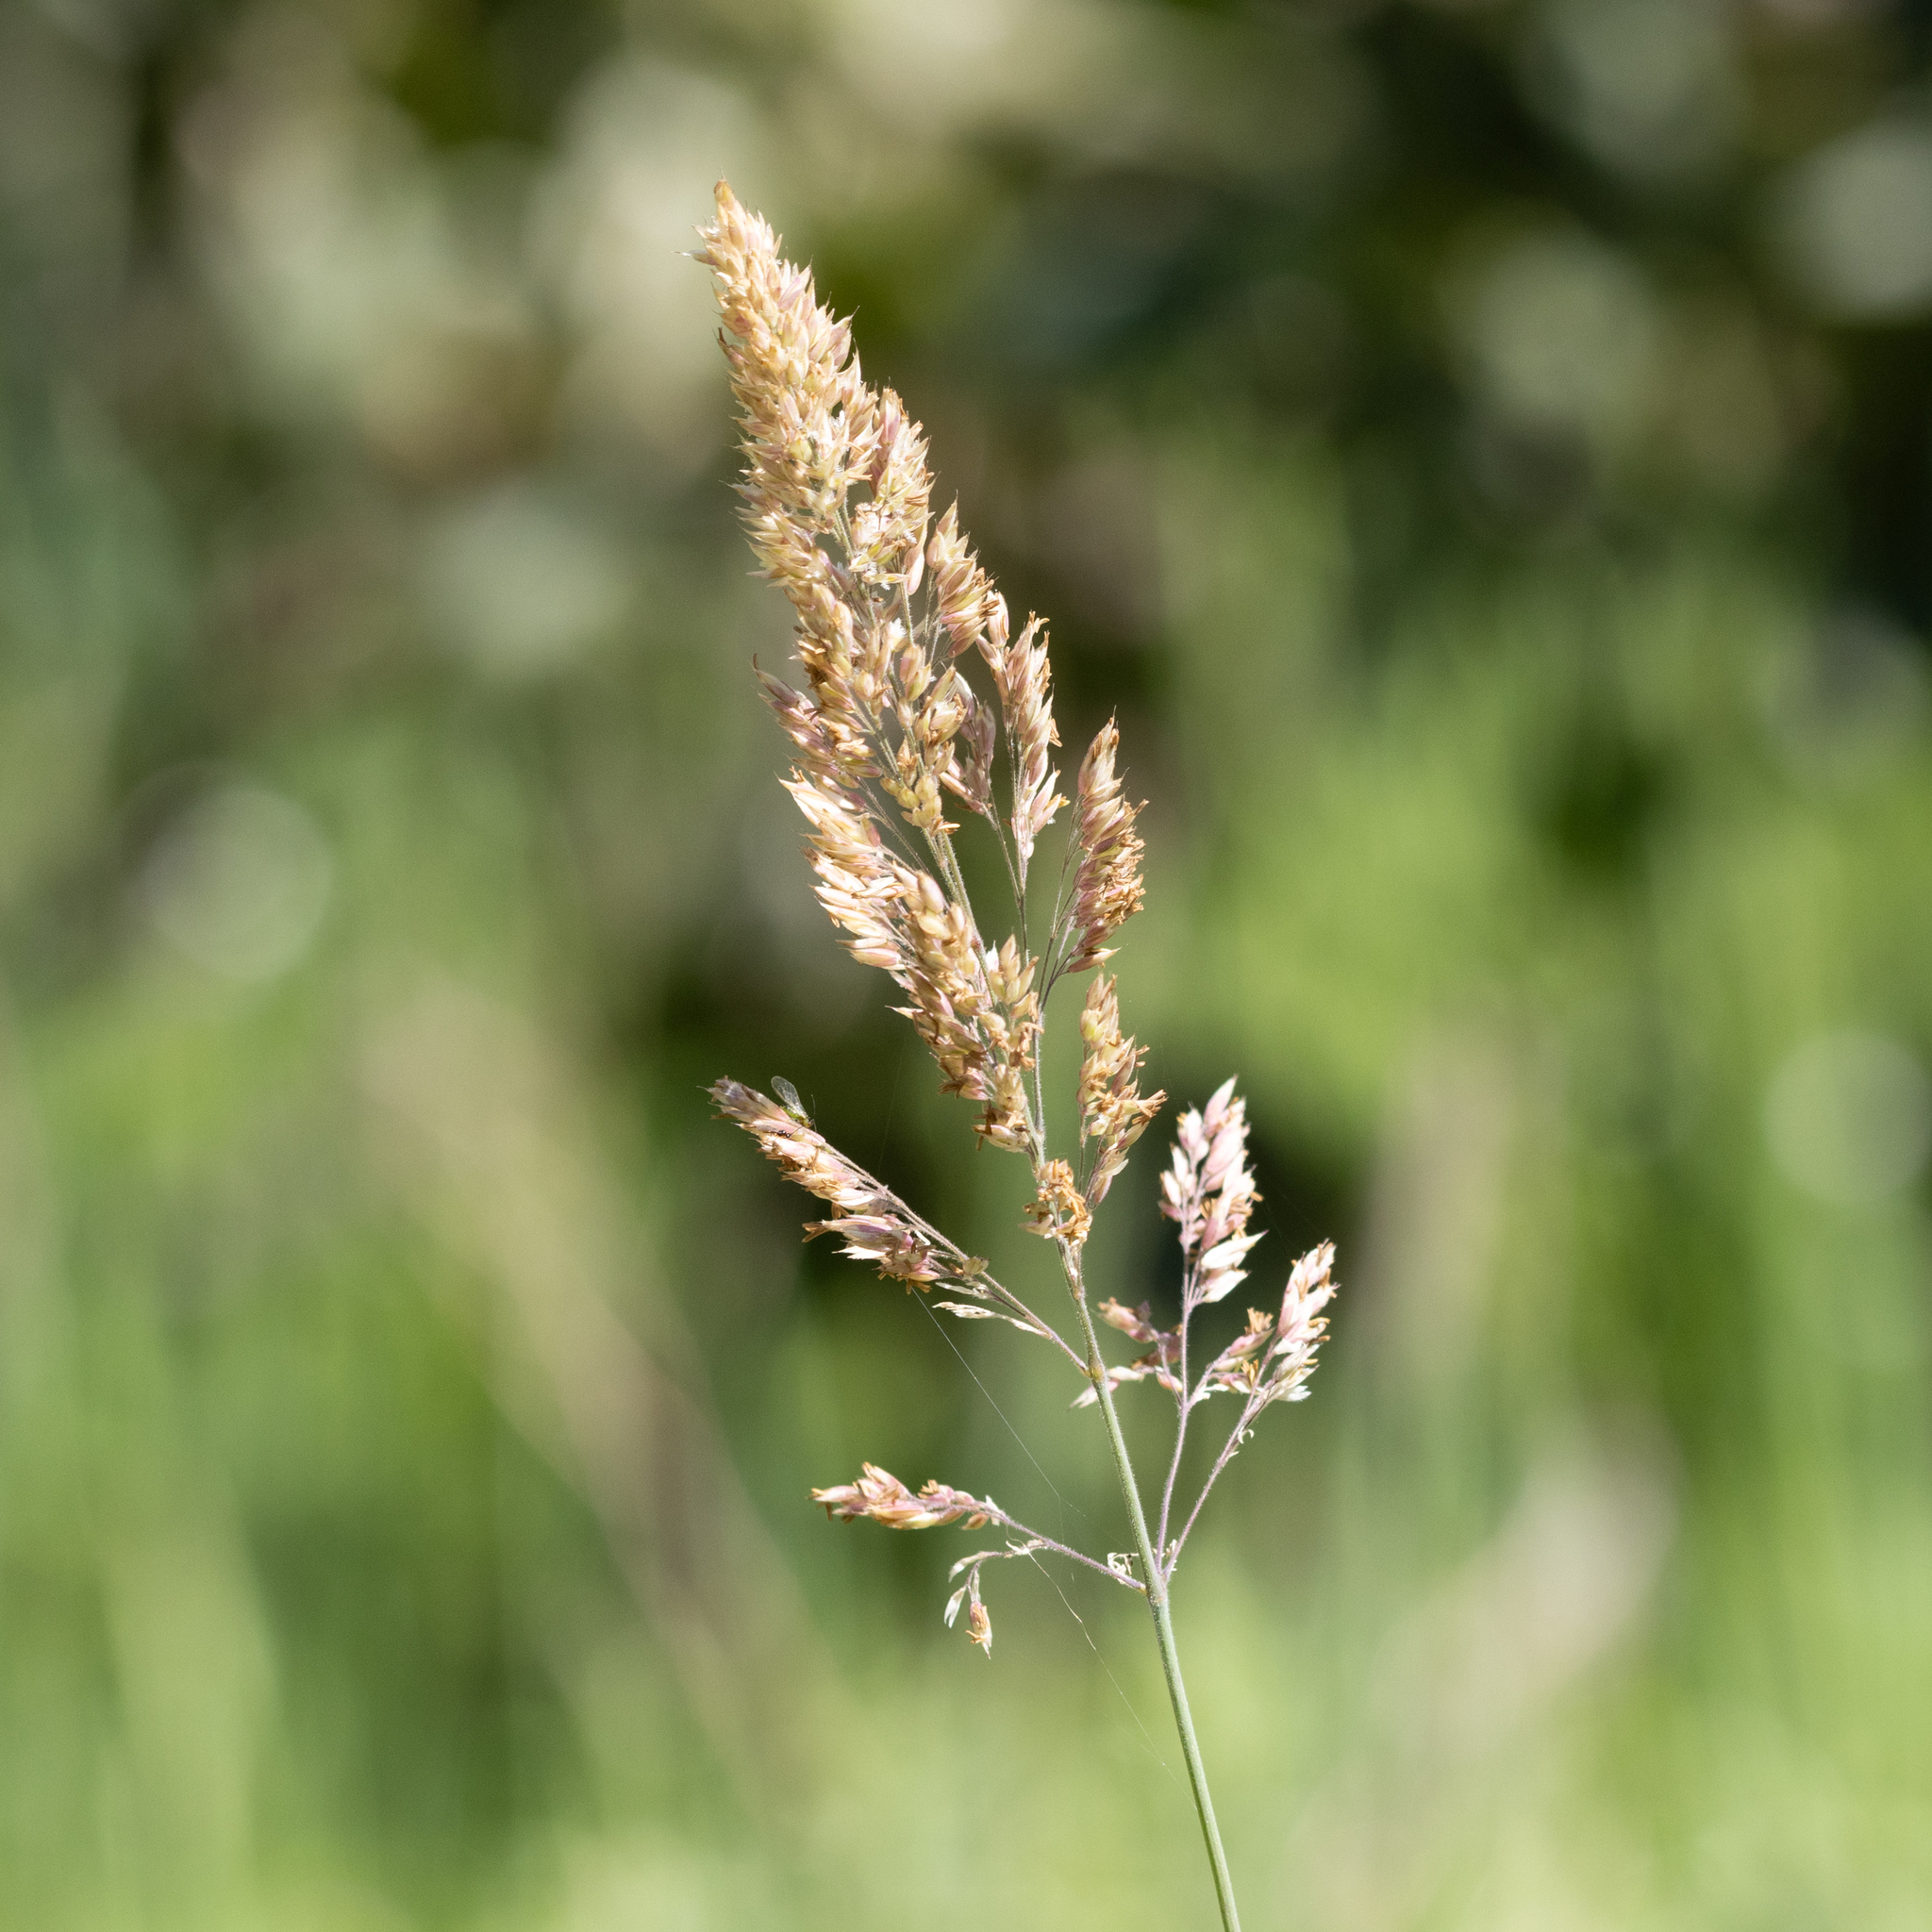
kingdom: Plantae
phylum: Tracheophyta
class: Liliopsida
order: Poales
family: Poaceae
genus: Holcus
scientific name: Holcus lanatus
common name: Yorkshire-fog
